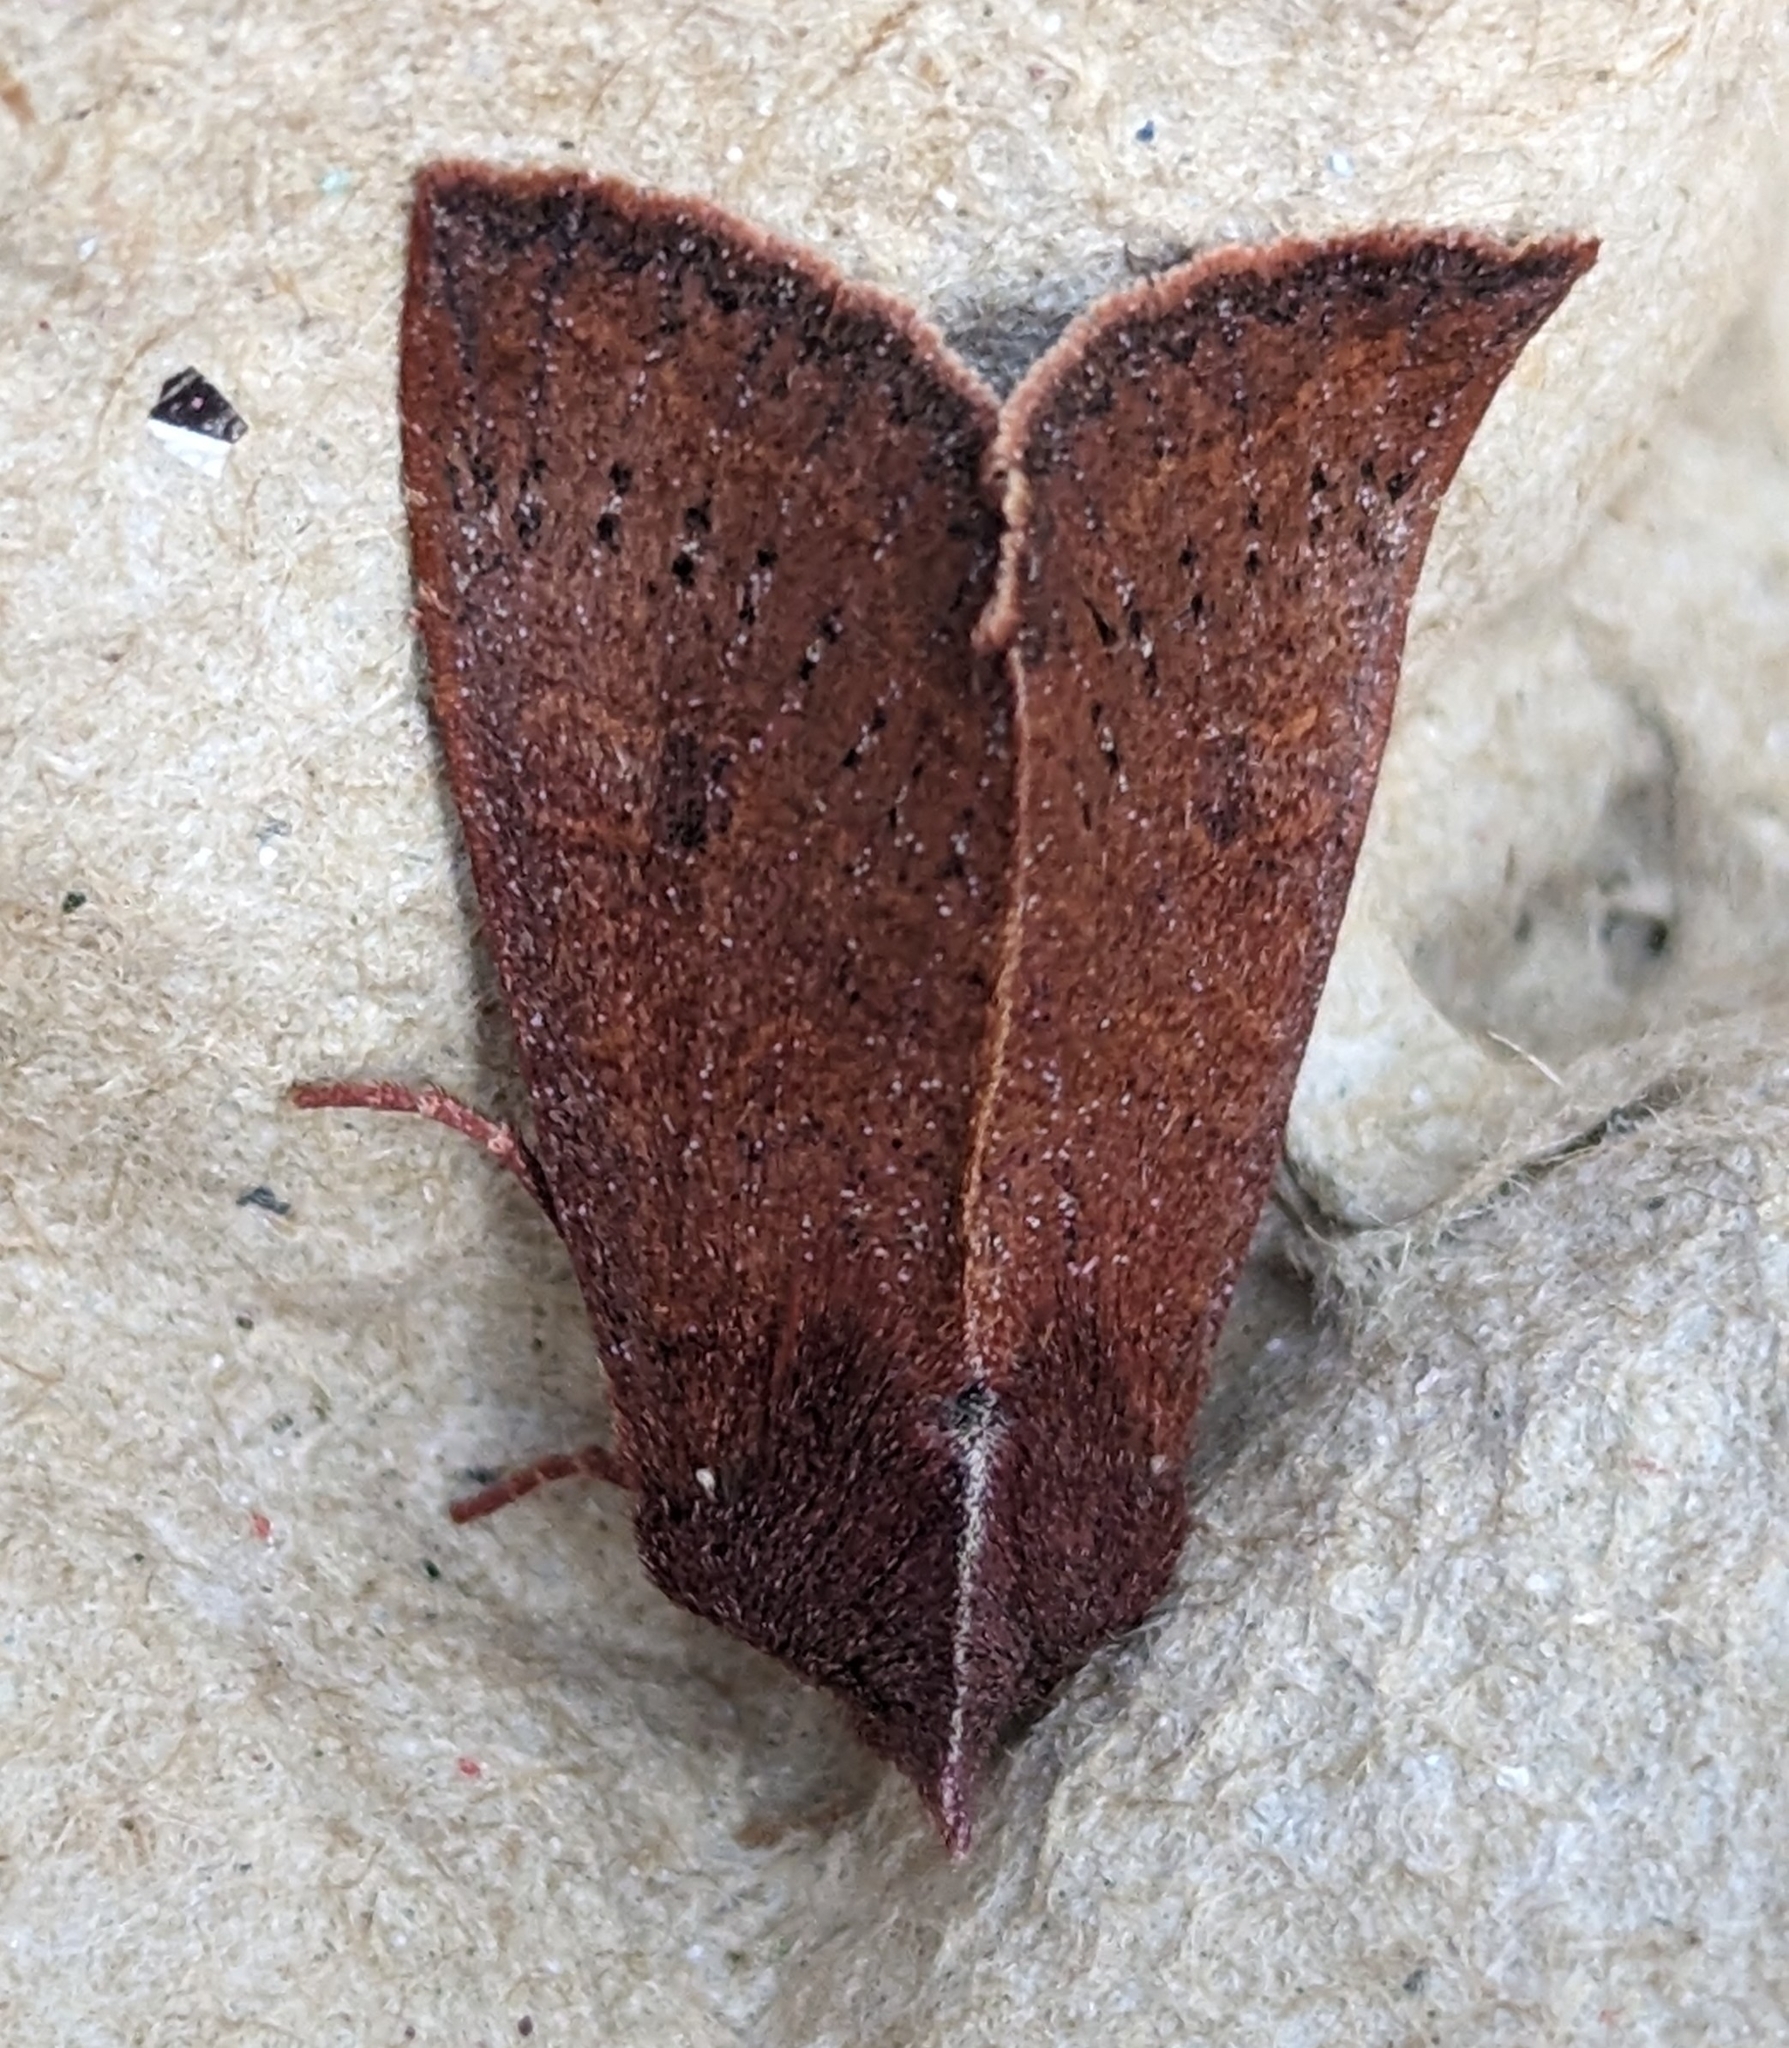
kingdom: Animalia
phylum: Arthropoda
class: Insecta
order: Lepidoptera
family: Noctuidae
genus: Orthosia
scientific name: Orthosia transparens
